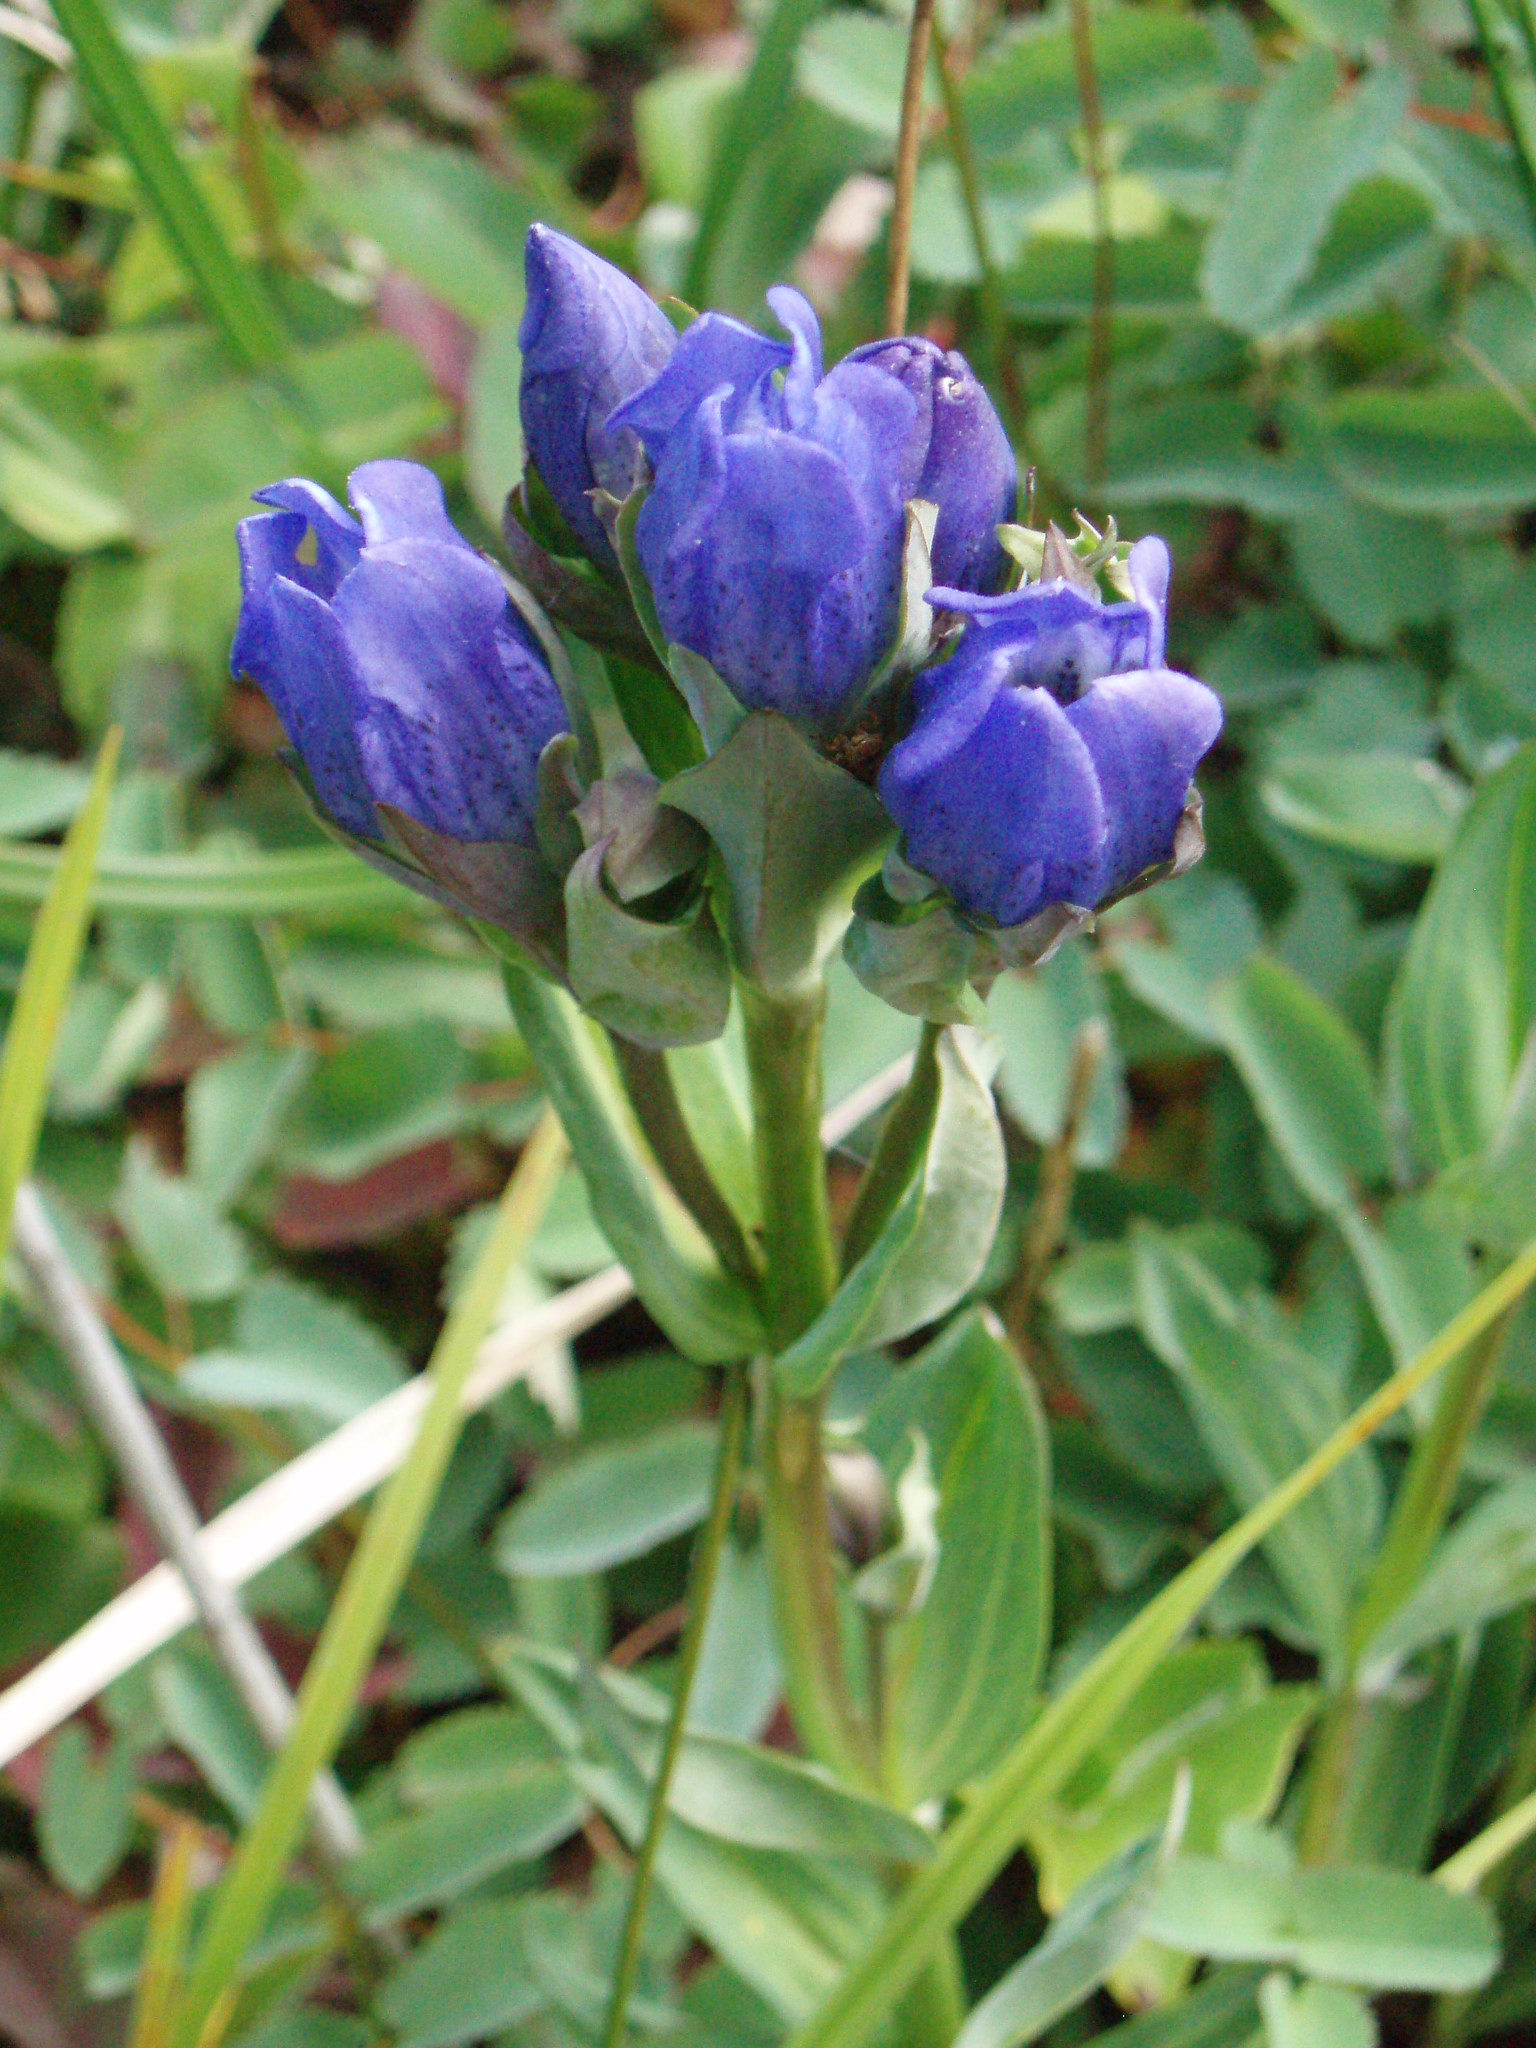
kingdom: Plantae
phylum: Tracheophyta
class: Magnoliopsida
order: Gentianales
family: Gentianaceae
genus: Gentiana
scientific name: Gentiana sceptrum
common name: Pacific gentian
